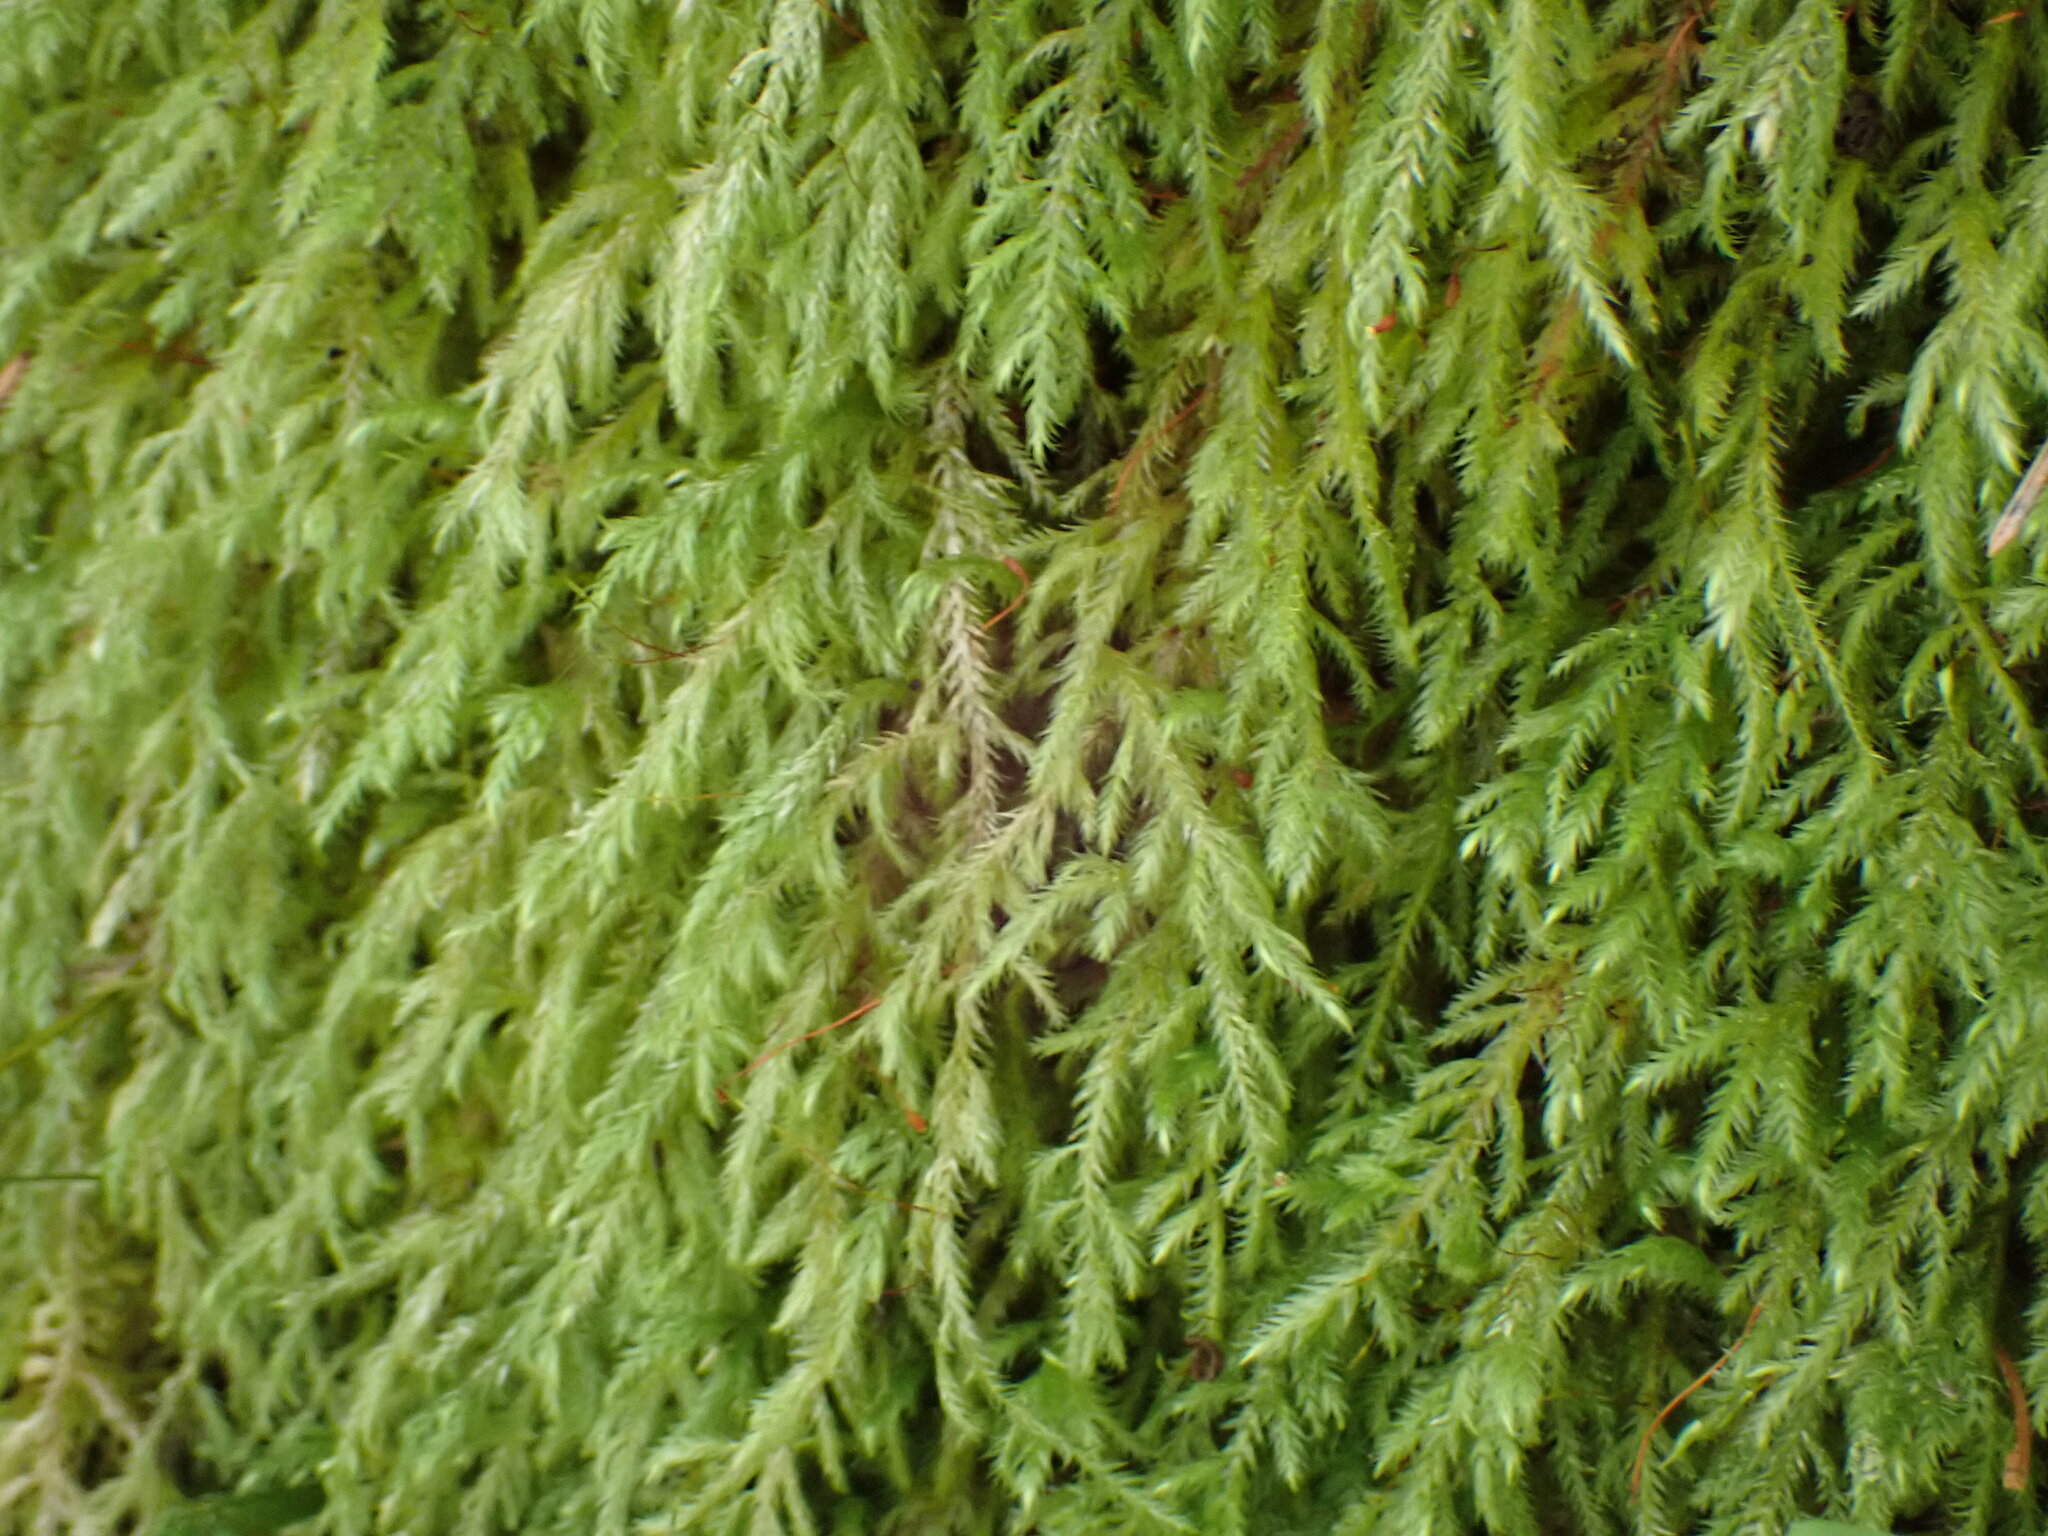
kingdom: Plantae
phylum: Bryophyta
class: Bryopsida
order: Hypnales
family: Lembophyllaceae
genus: Pseudisothecium
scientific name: Pseudisothecium stoloniferum
